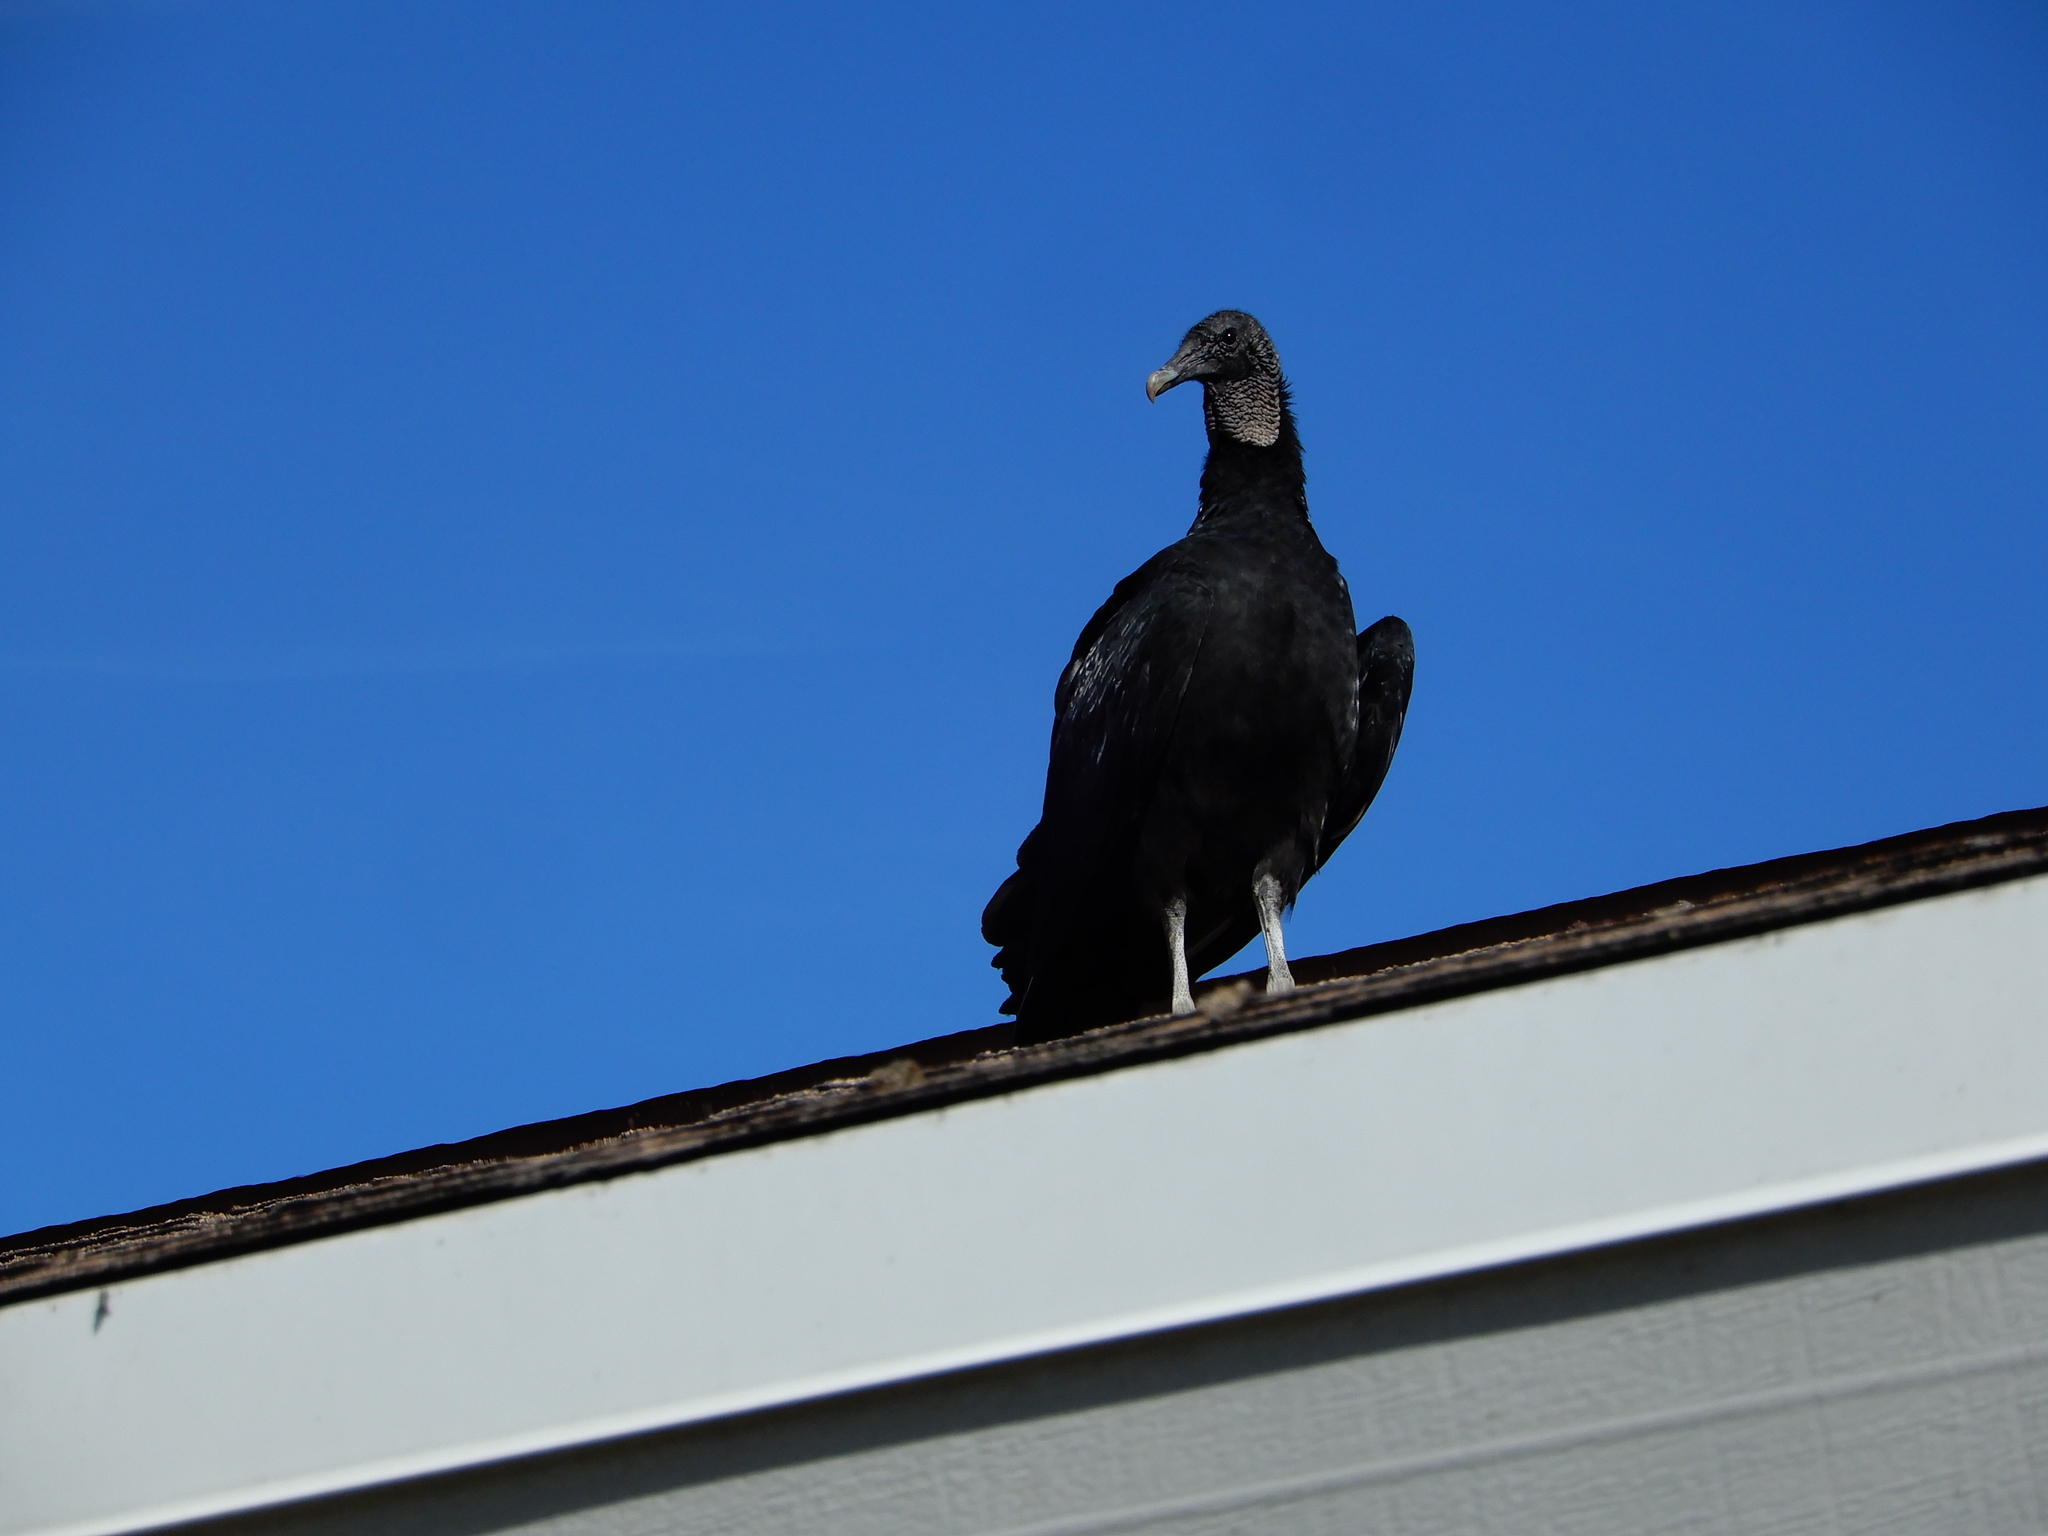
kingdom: Animalia
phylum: Chordata
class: Aves
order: Accipitriformes
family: Cathartidae
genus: Coragyps
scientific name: Coragyps atratus
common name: Black vulture
